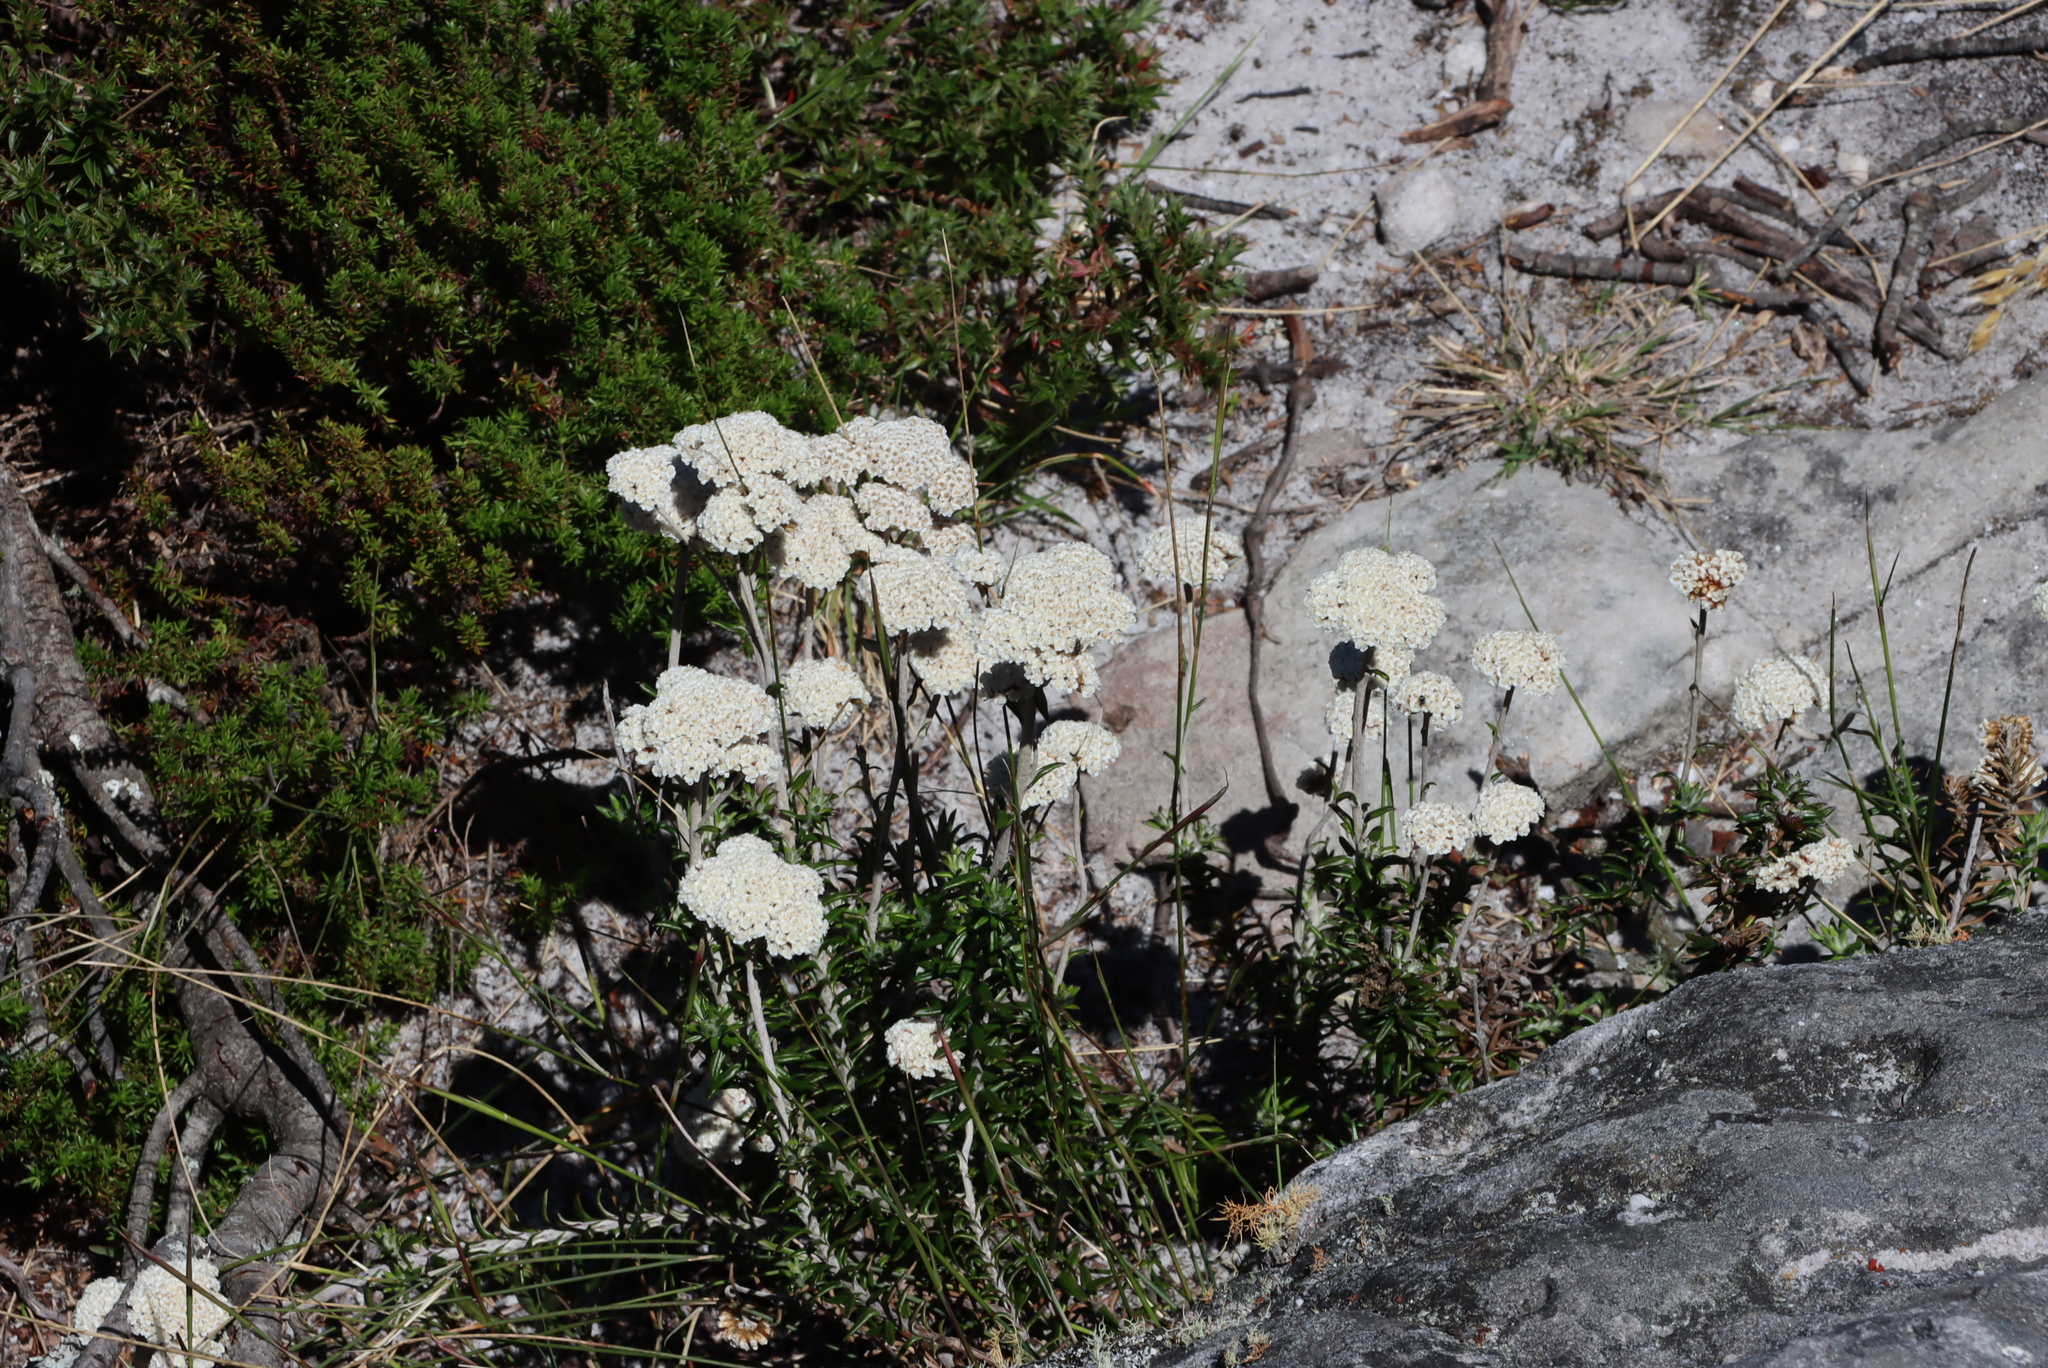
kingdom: Plantae
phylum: Tracheophyta
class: Magnoliopsida
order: Asterales
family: Asteraceae
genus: Anaxeton
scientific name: Anaxeton arborescens
